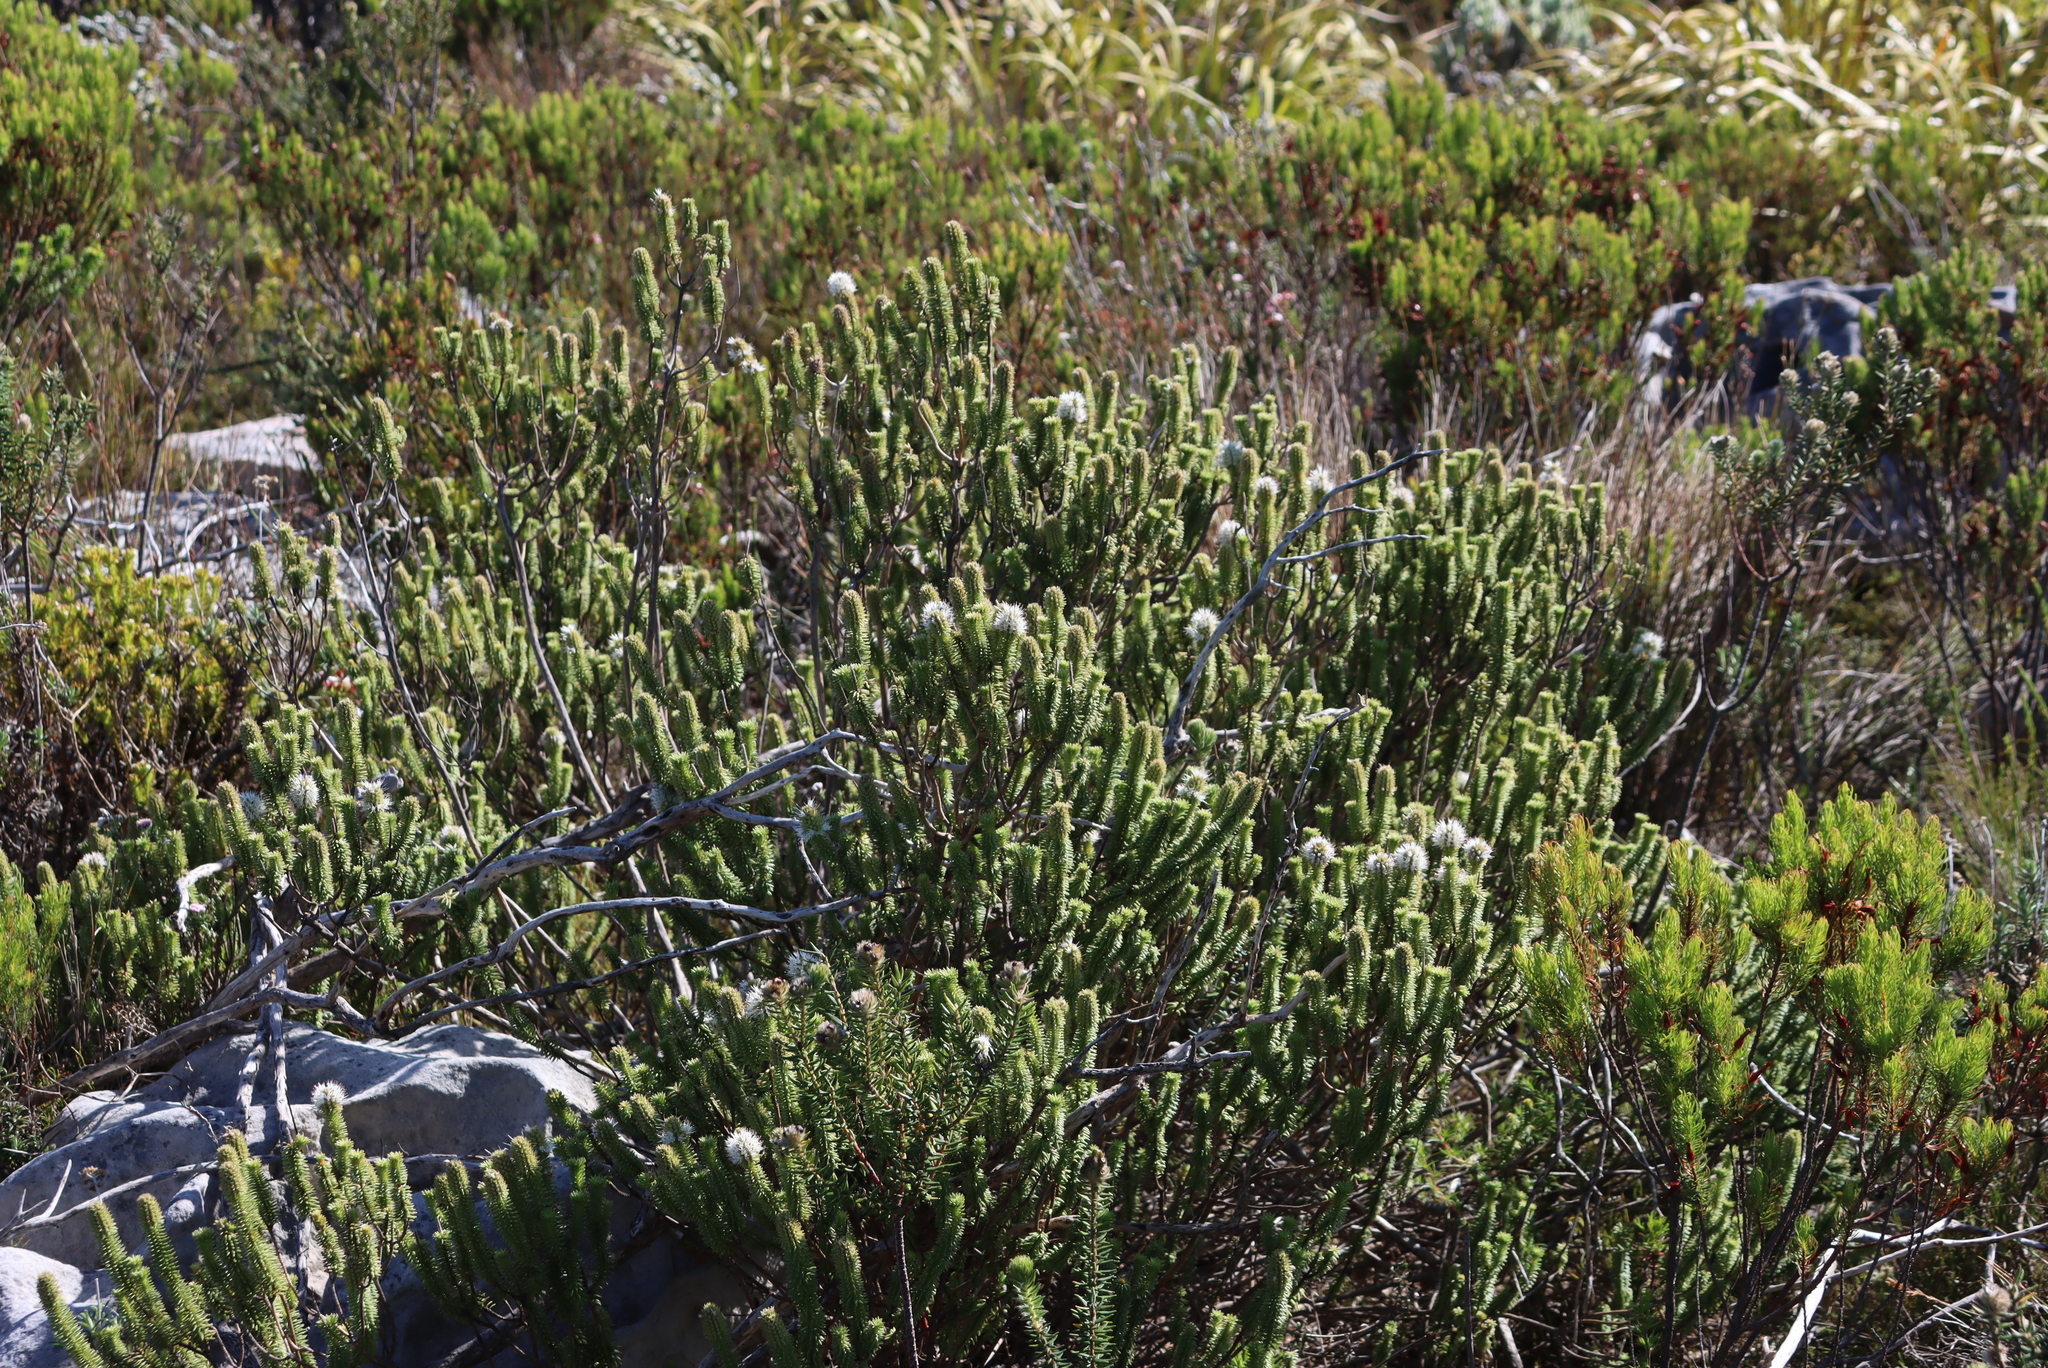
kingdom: Plantae
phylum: Tracheophyta
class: Magnoliopsida
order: Lamiales
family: Stilbaceae
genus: Stilbe
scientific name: Stilbe vestita
